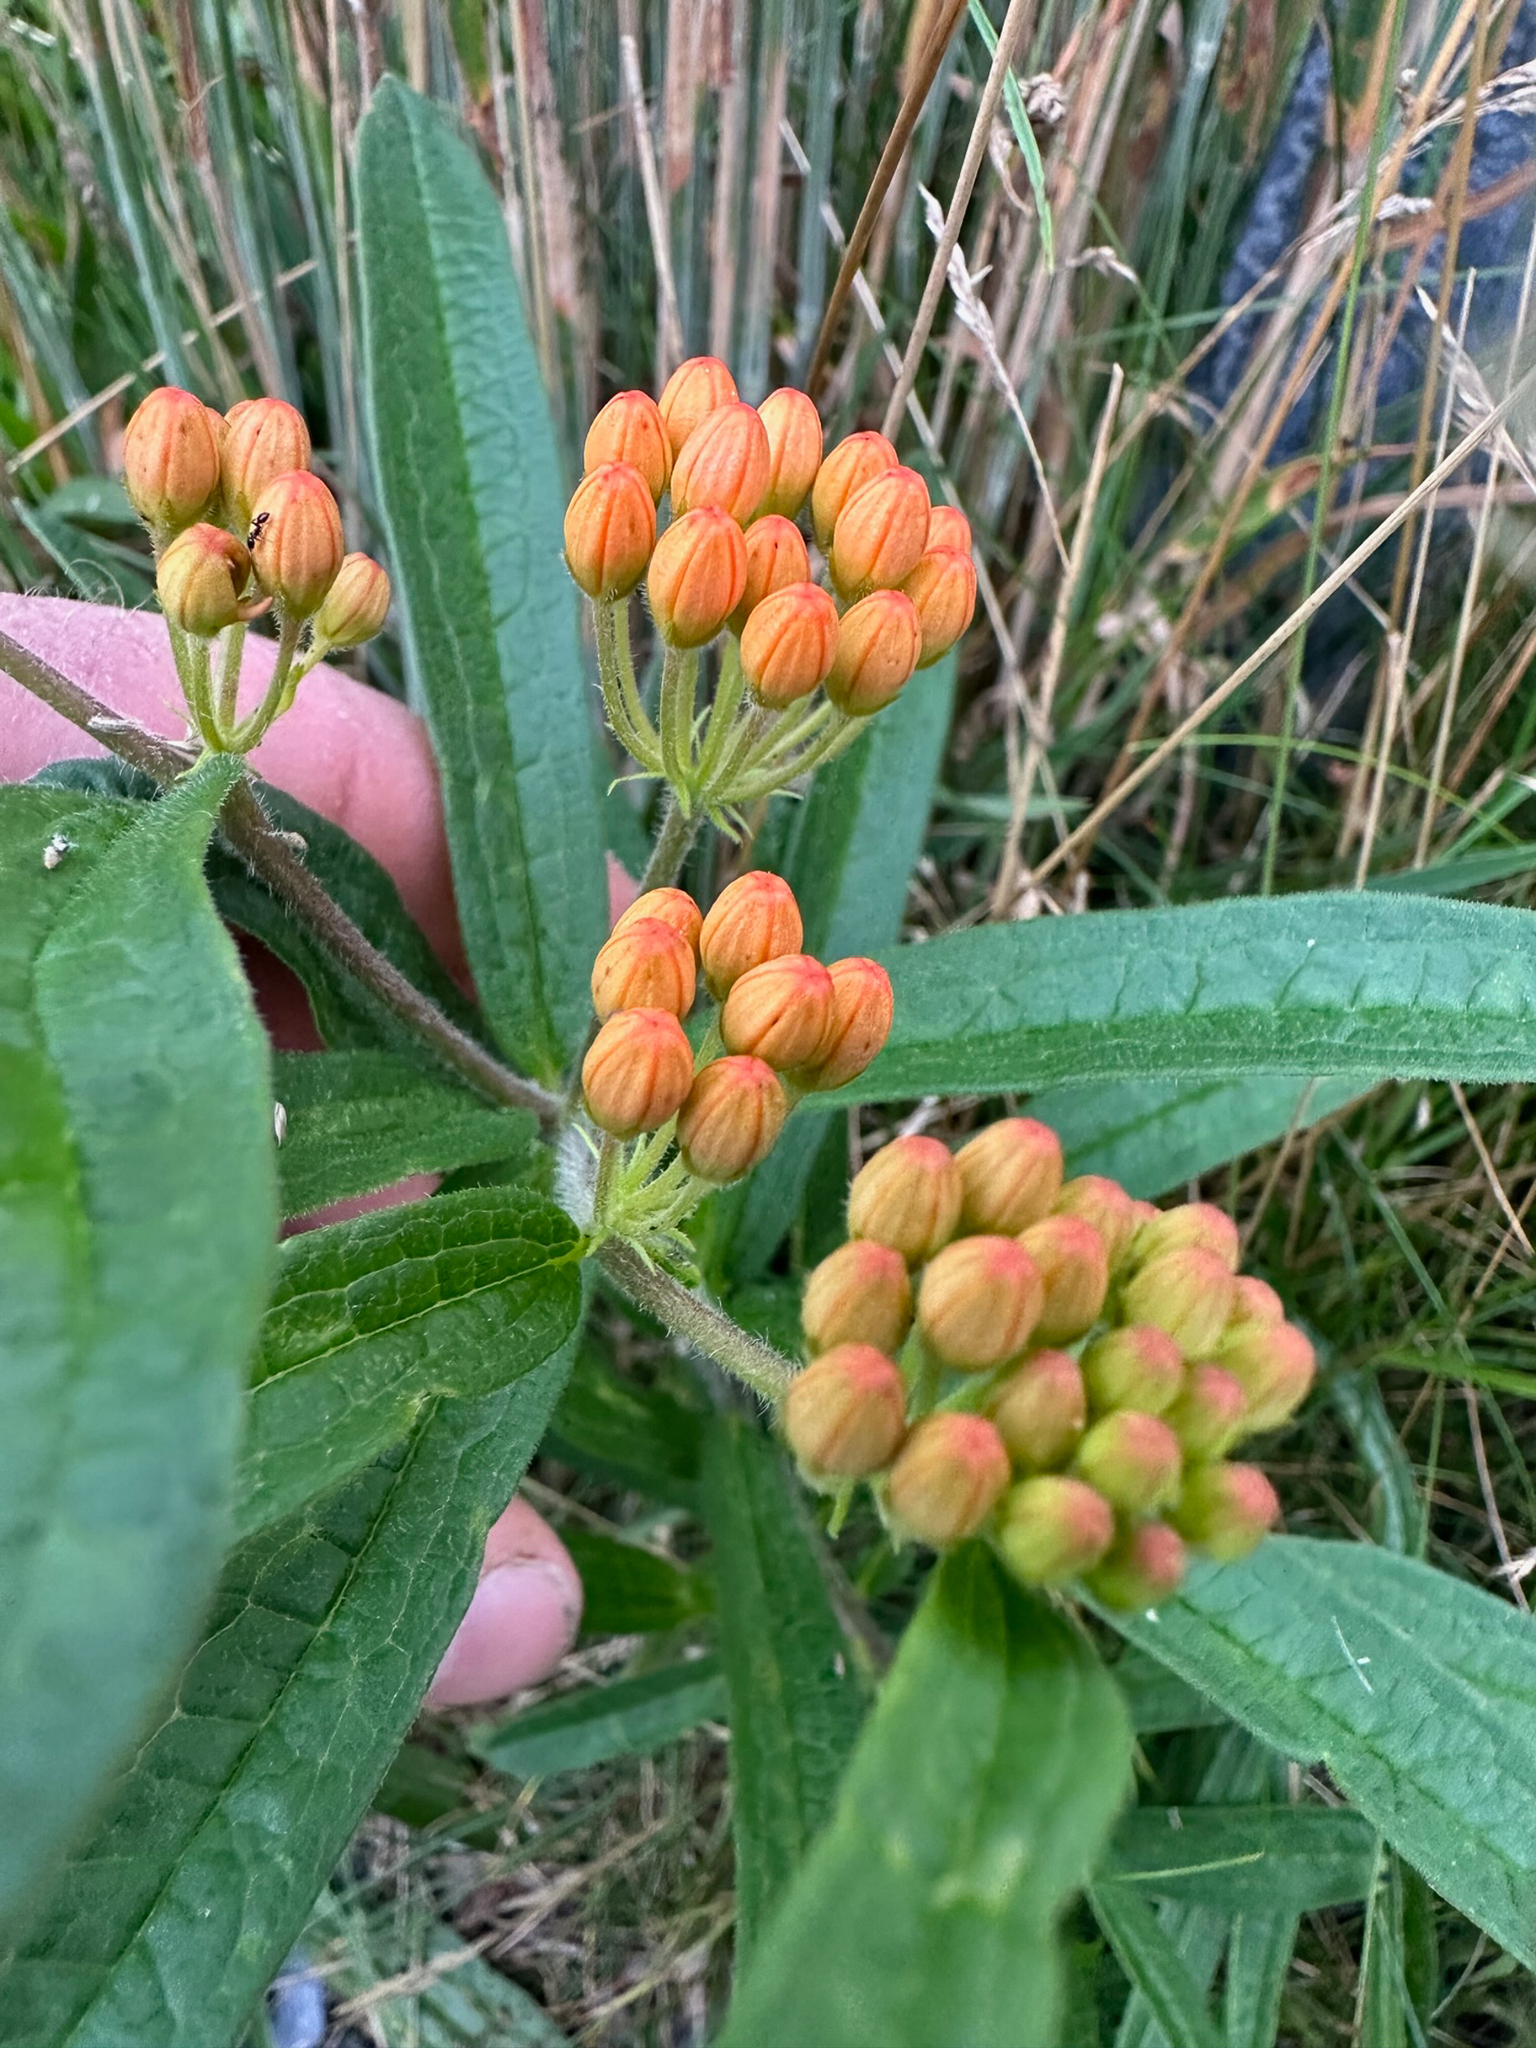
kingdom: Plantae
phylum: Tracheophyta
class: Magnoliopsida
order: Gentianales
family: Apocynaceae
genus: Asclepias
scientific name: Asclepias tuberosa
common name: Butterfly milkweed
